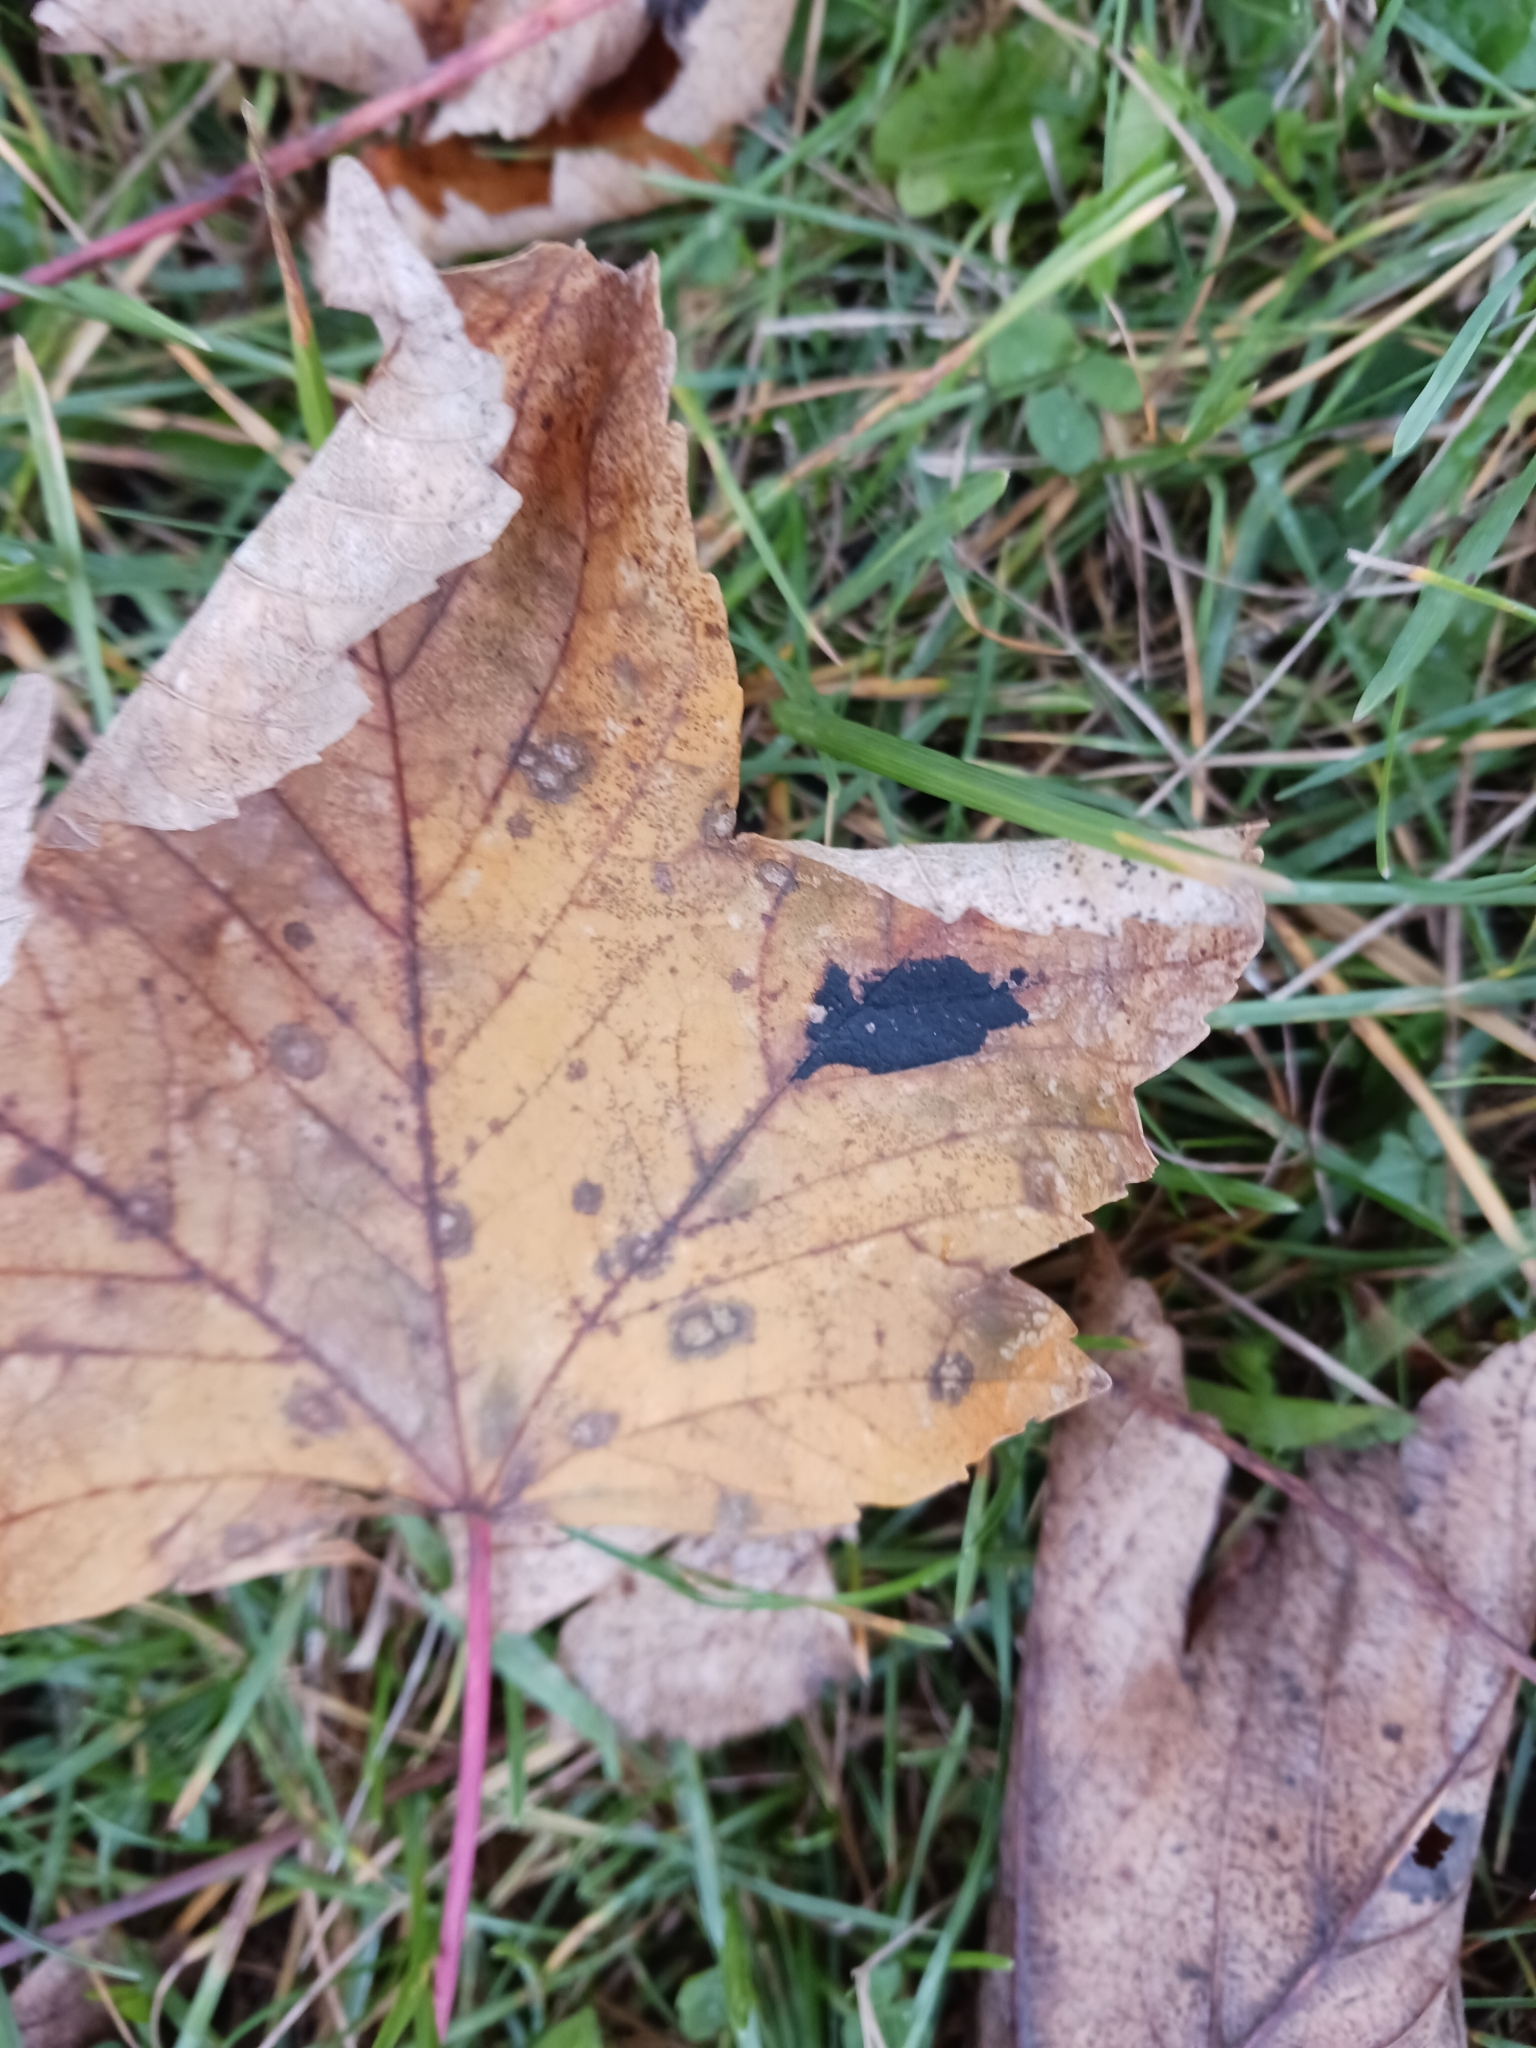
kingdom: Fungi
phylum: Ascomycota
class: Leotiomycetes
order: Rhytismatales
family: Rhytismataceae
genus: Rhytisma
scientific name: Rhytisma acerinum
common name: European tar spot
